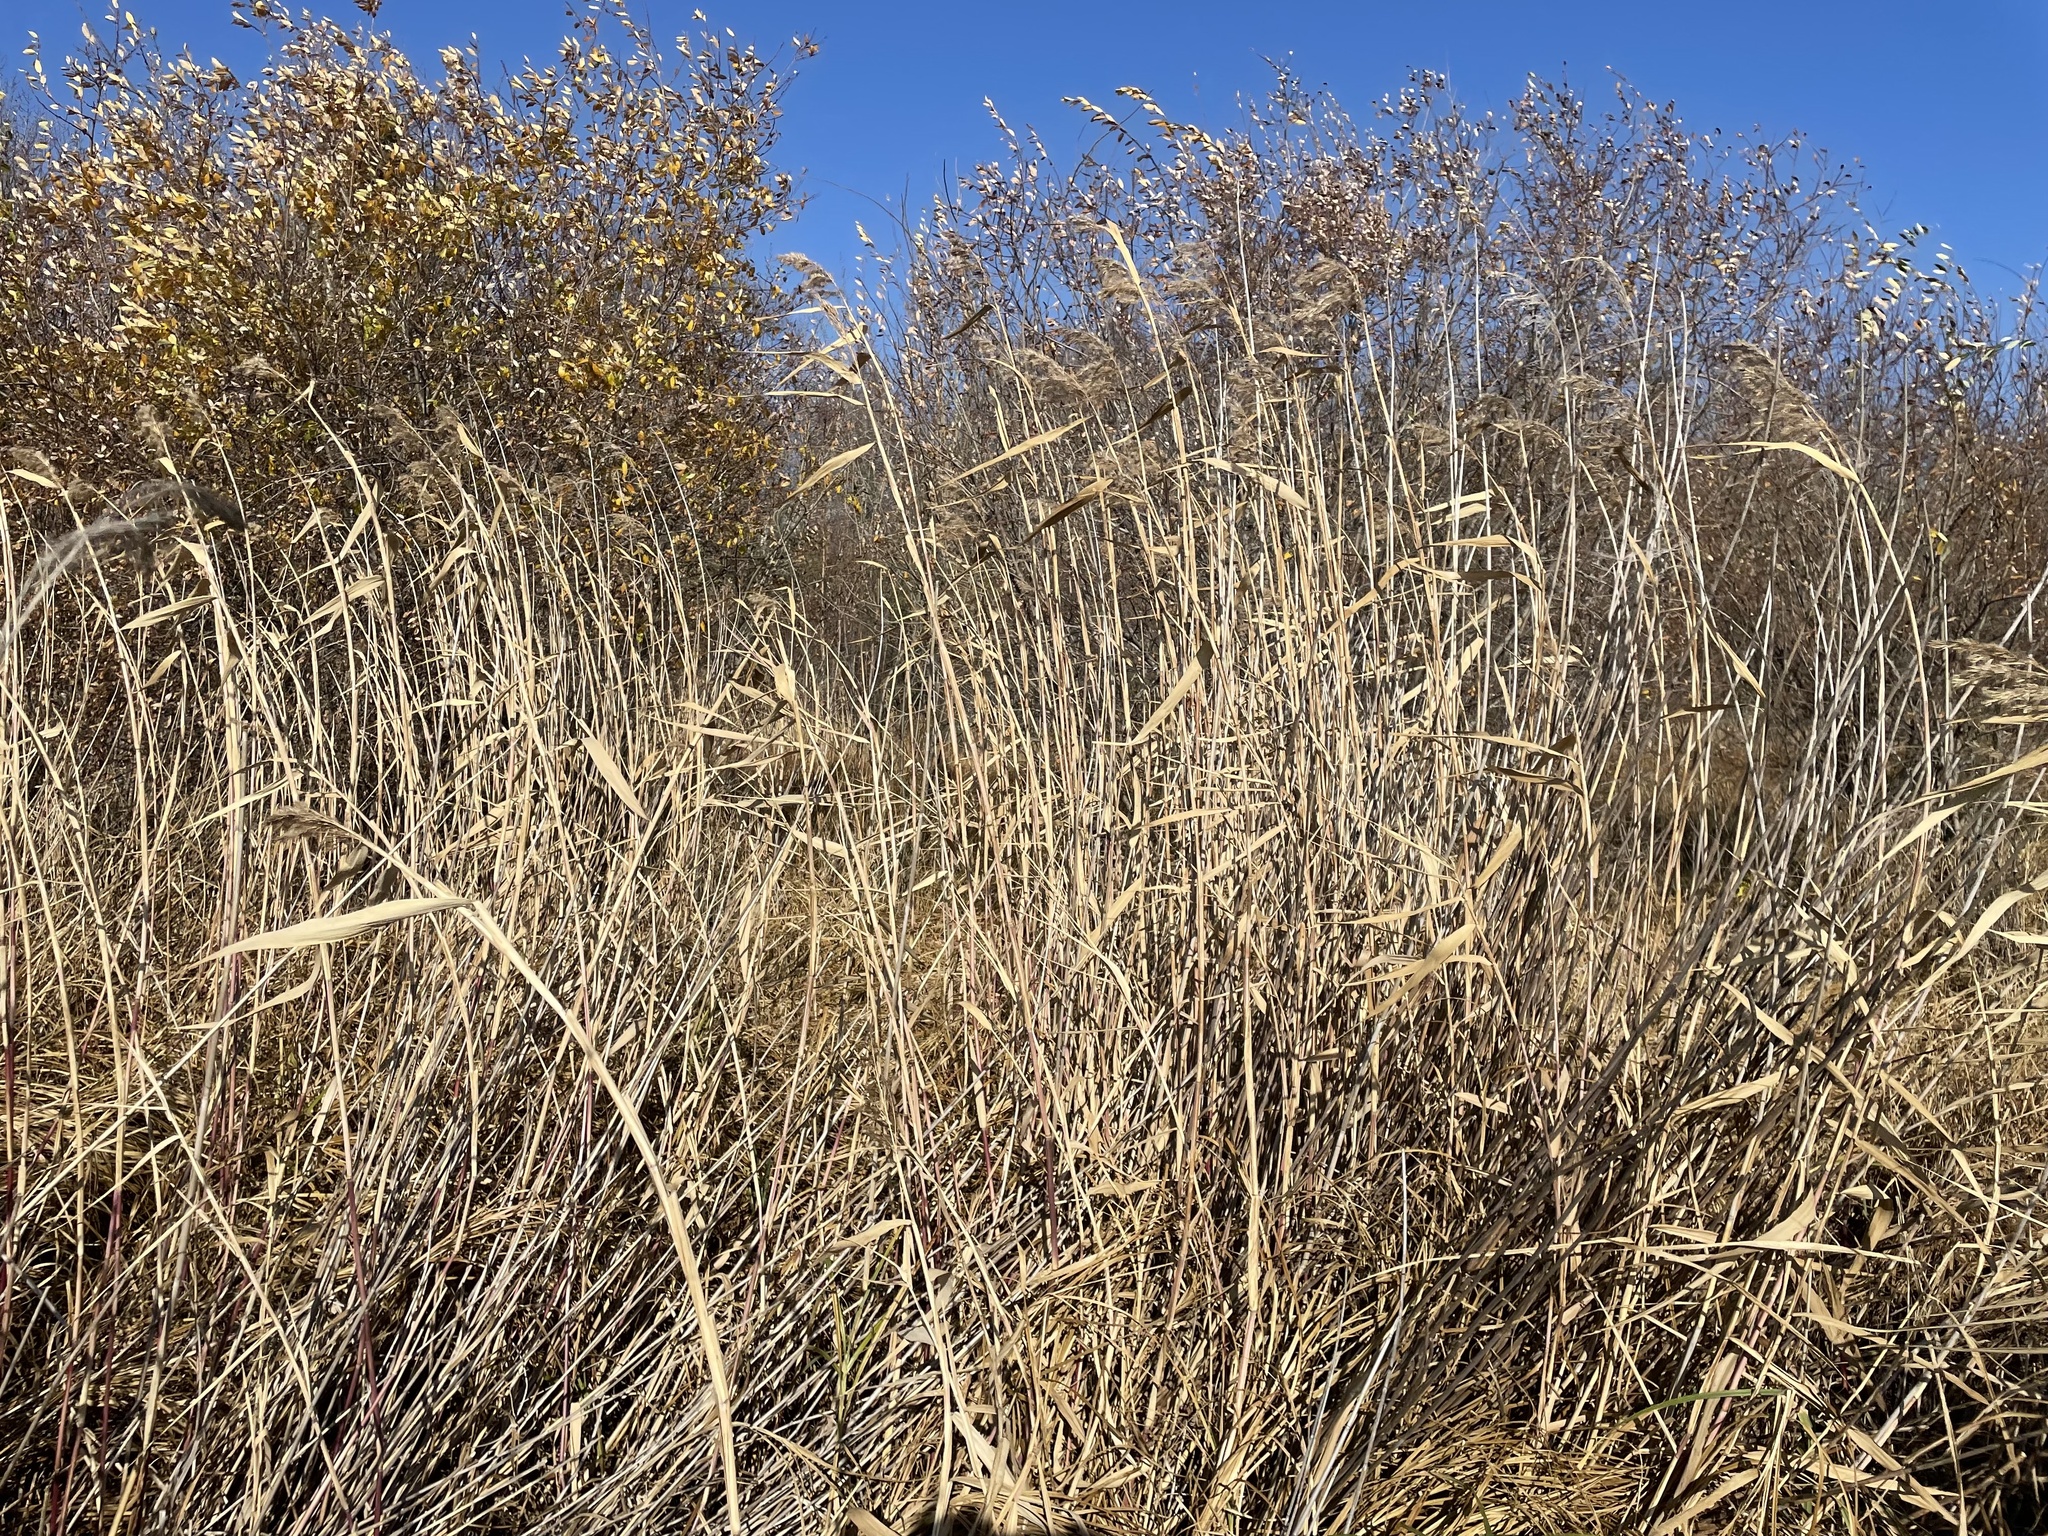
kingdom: Plantae
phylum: Tracheophyta
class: Liliopsida
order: Poales
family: Poaceae
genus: Phragmites
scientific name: Phragmites australis
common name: Common reed
